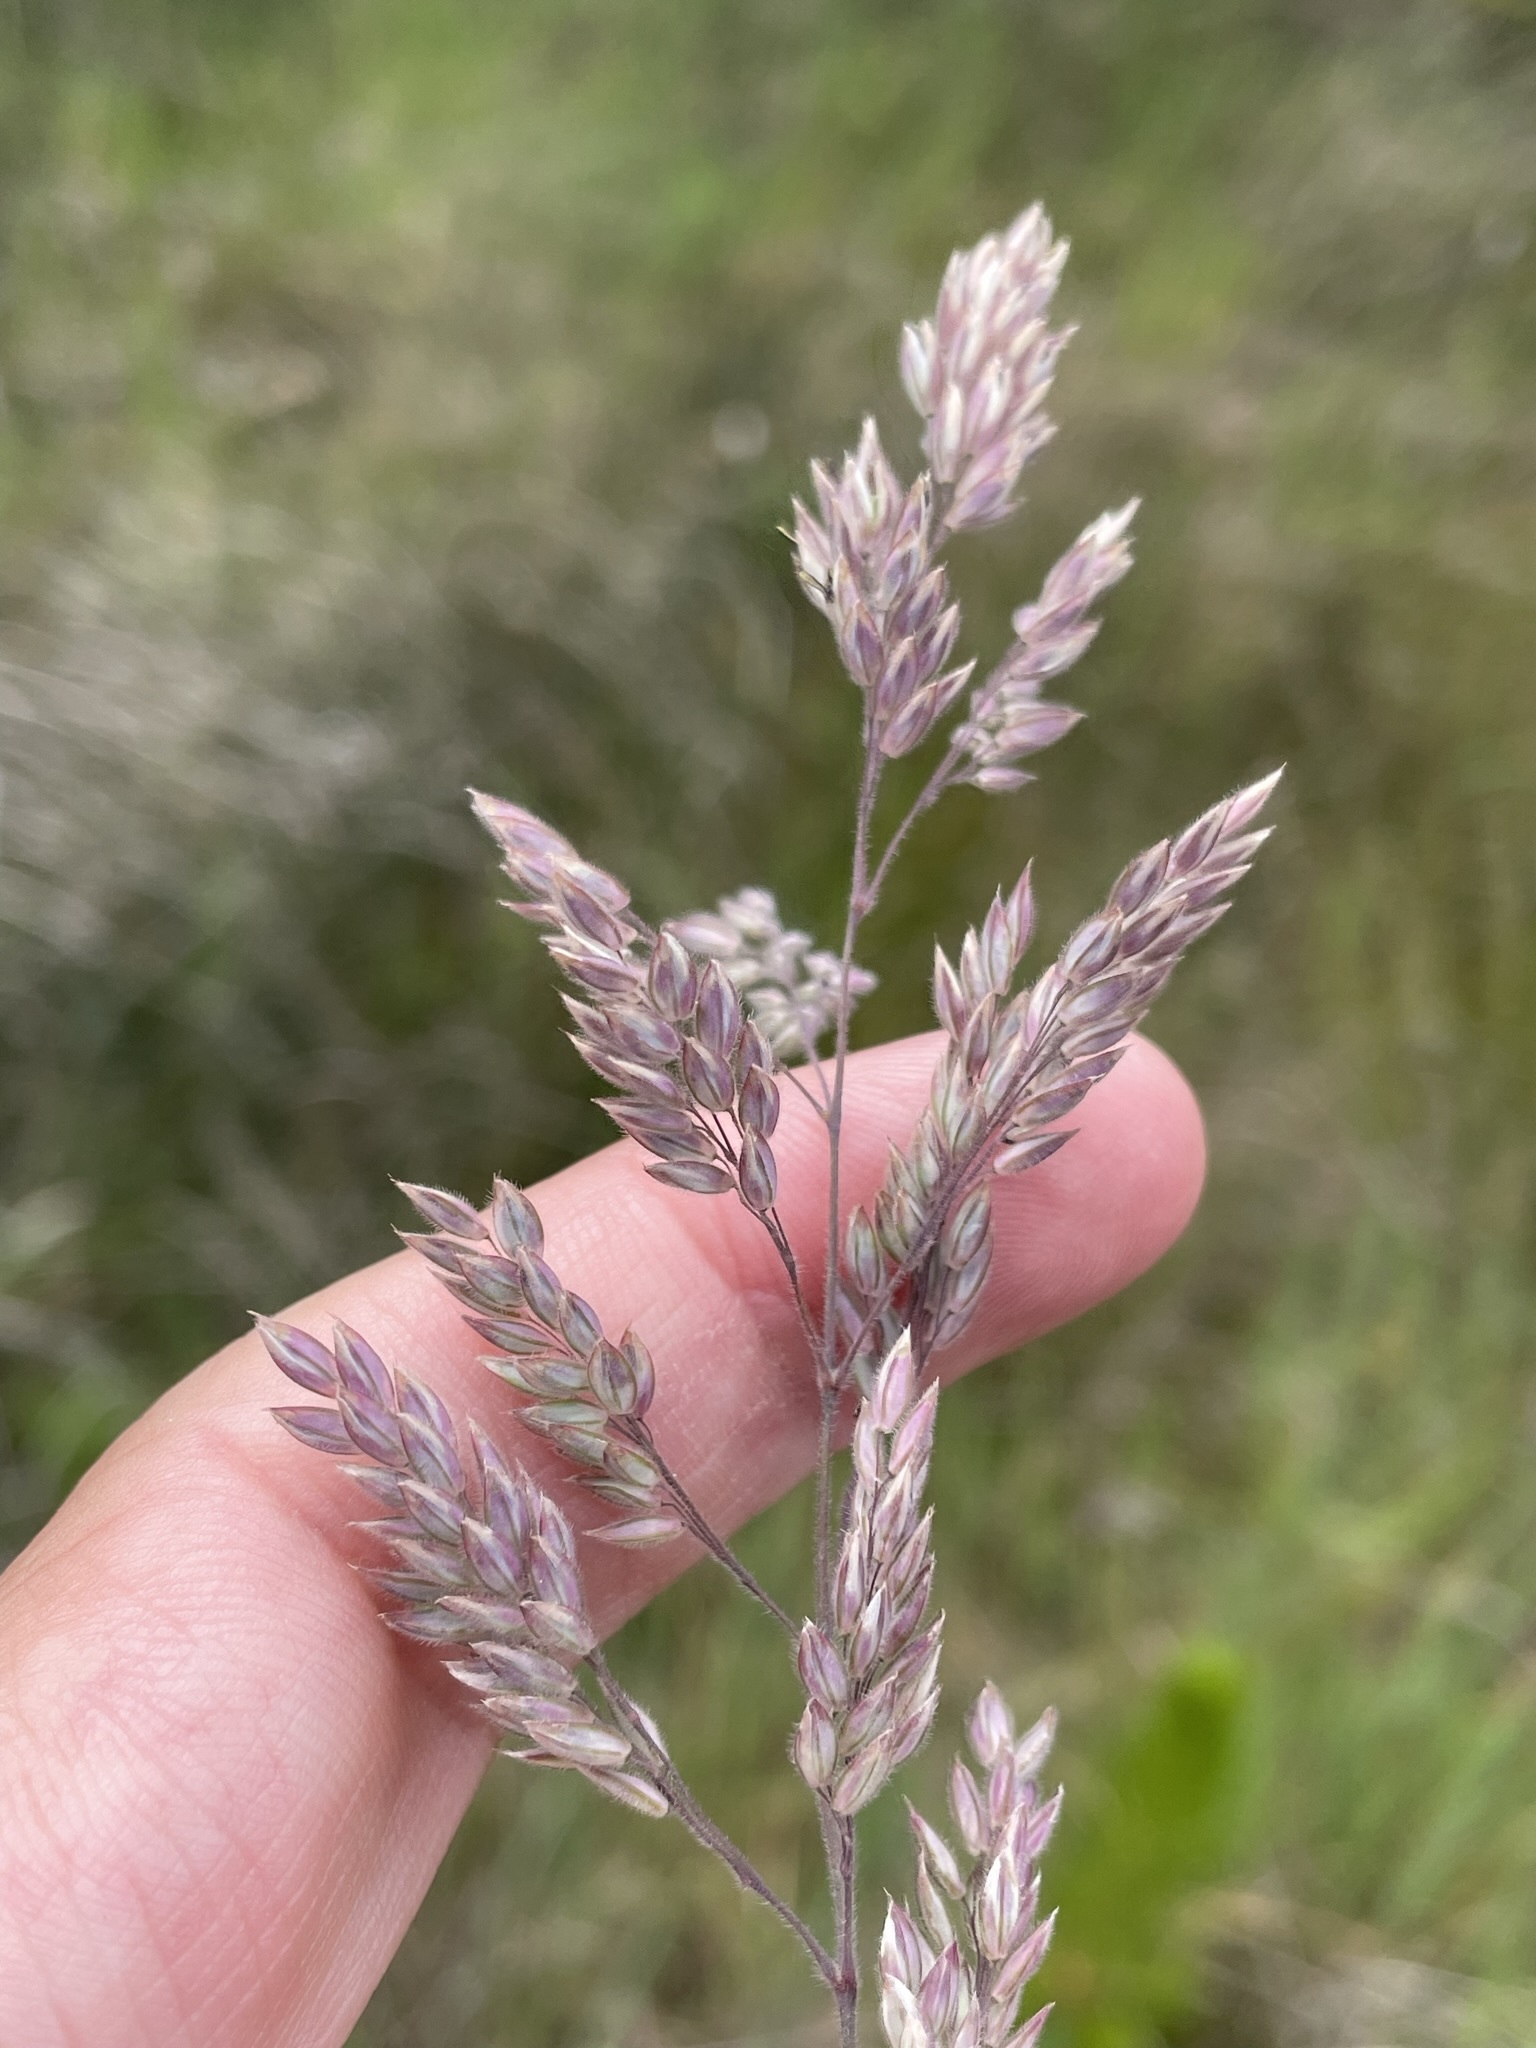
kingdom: Plantae
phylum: Tracheophyta
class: Liliopsida
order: Poales
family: Poaceae
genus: Holcus
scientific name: Holcus lanatus
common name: Yorkshire-fog
